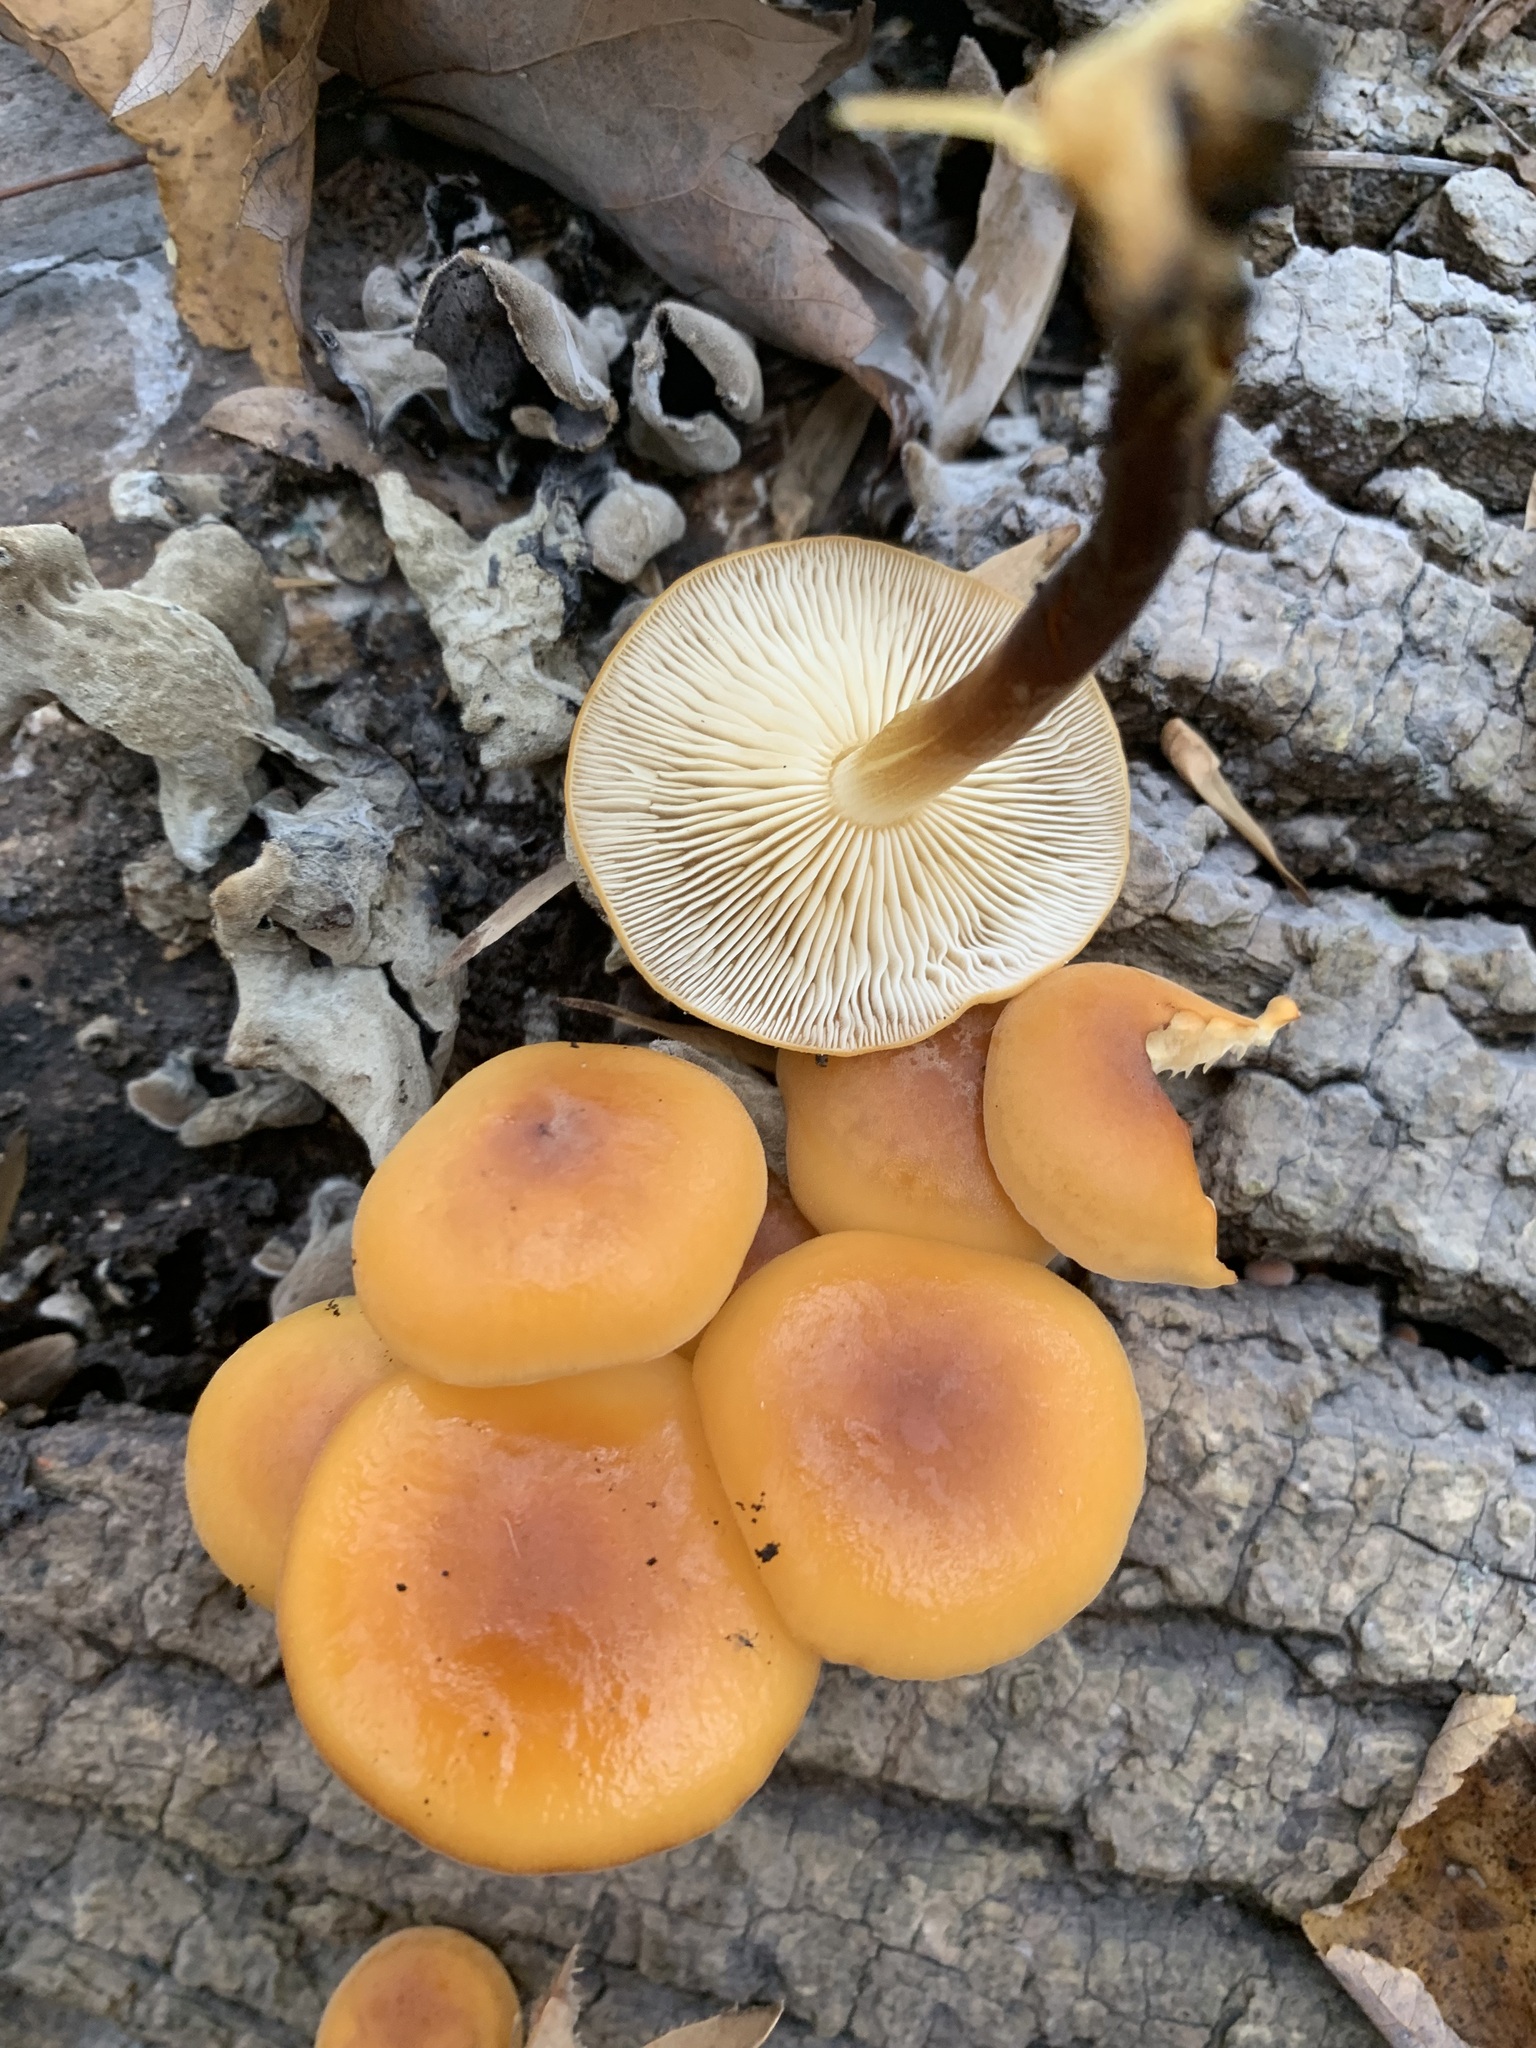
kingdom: Fungi
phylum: Basidiomycota
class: Agaricomycetes
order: Agaricales
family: Physalacriaceae
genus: Flammulina
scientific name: Flammulina velutipes
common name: Velvet shank
